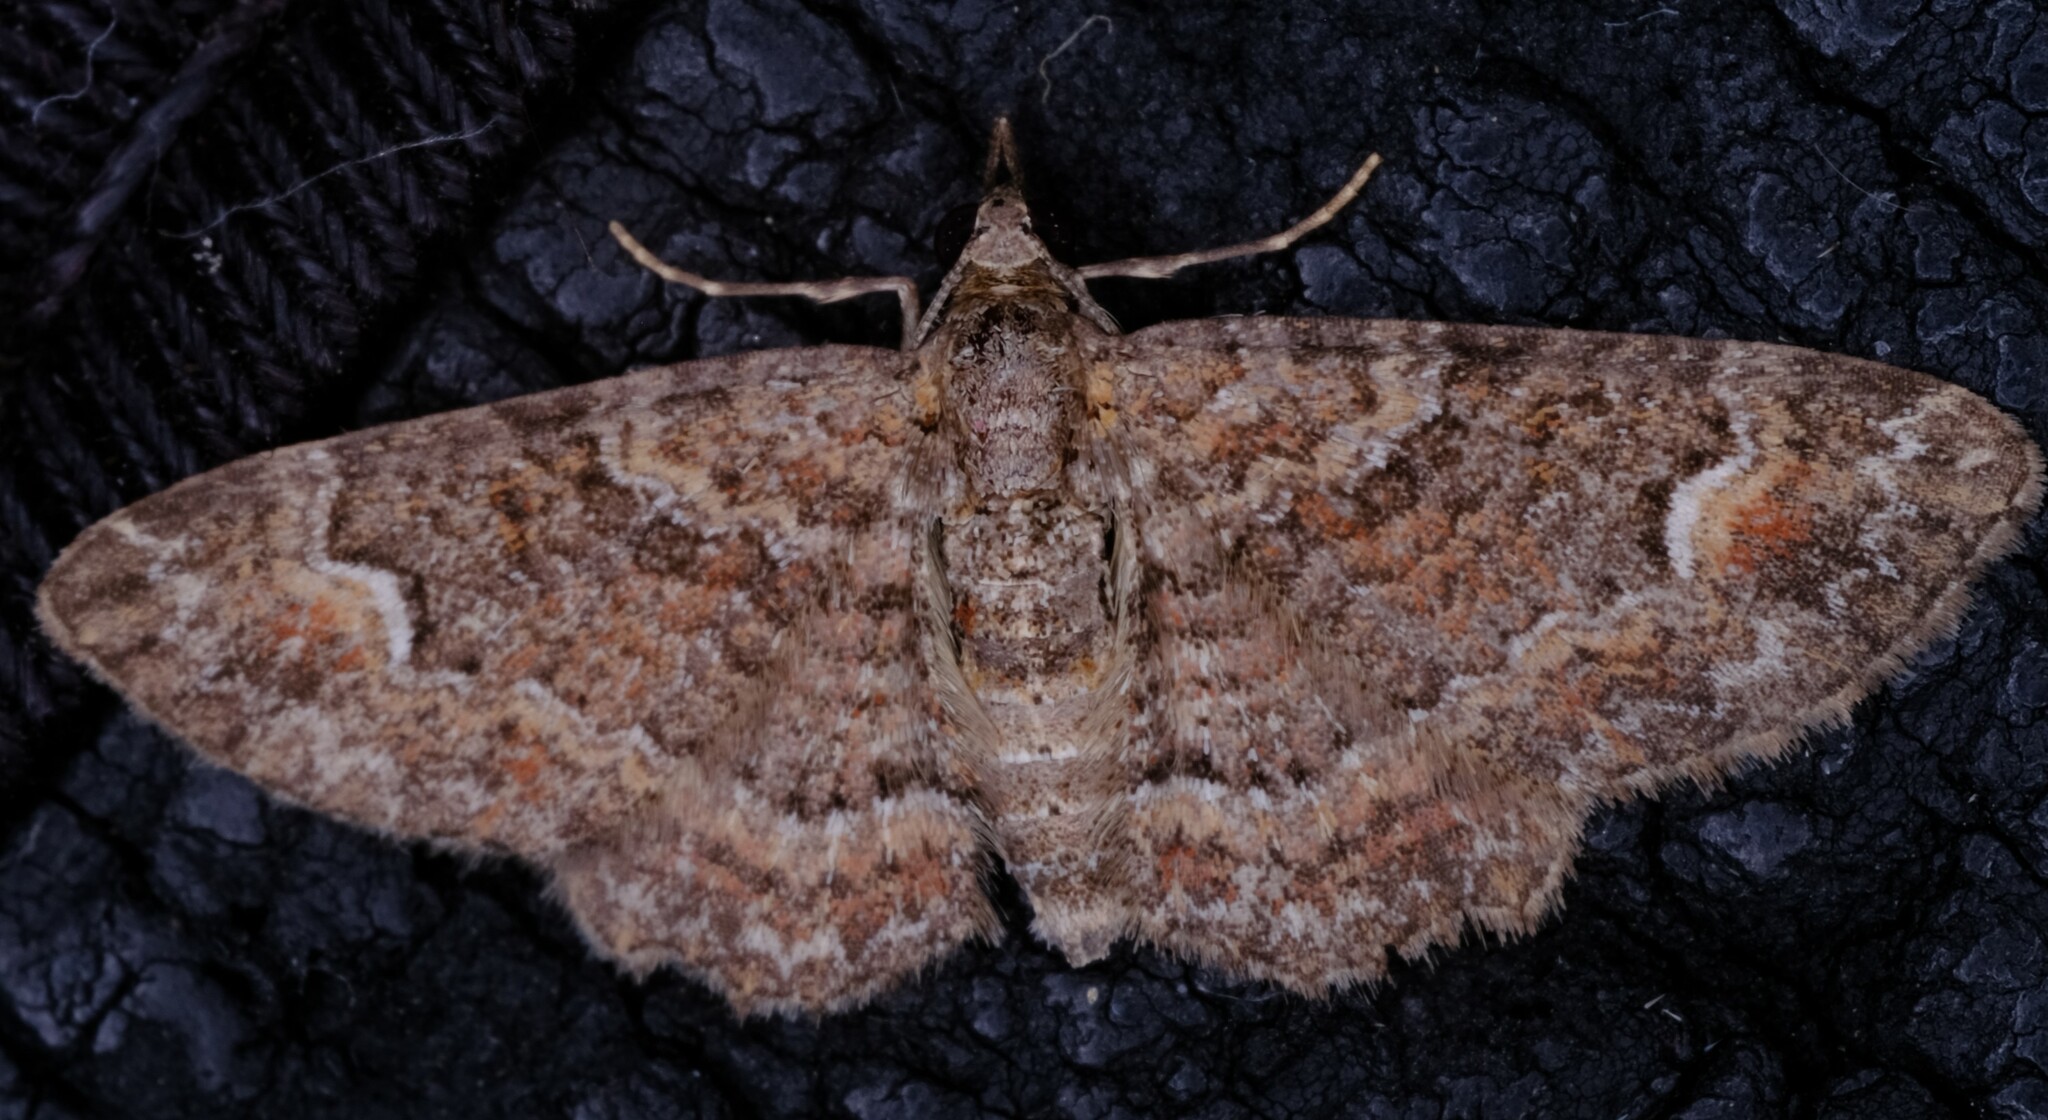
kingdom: Animalia
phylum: Arthropoda
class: Insecta
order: Lepidoptera
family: Geometridae
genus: Pasiphilodes
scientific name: Pasiphilodes testulata
